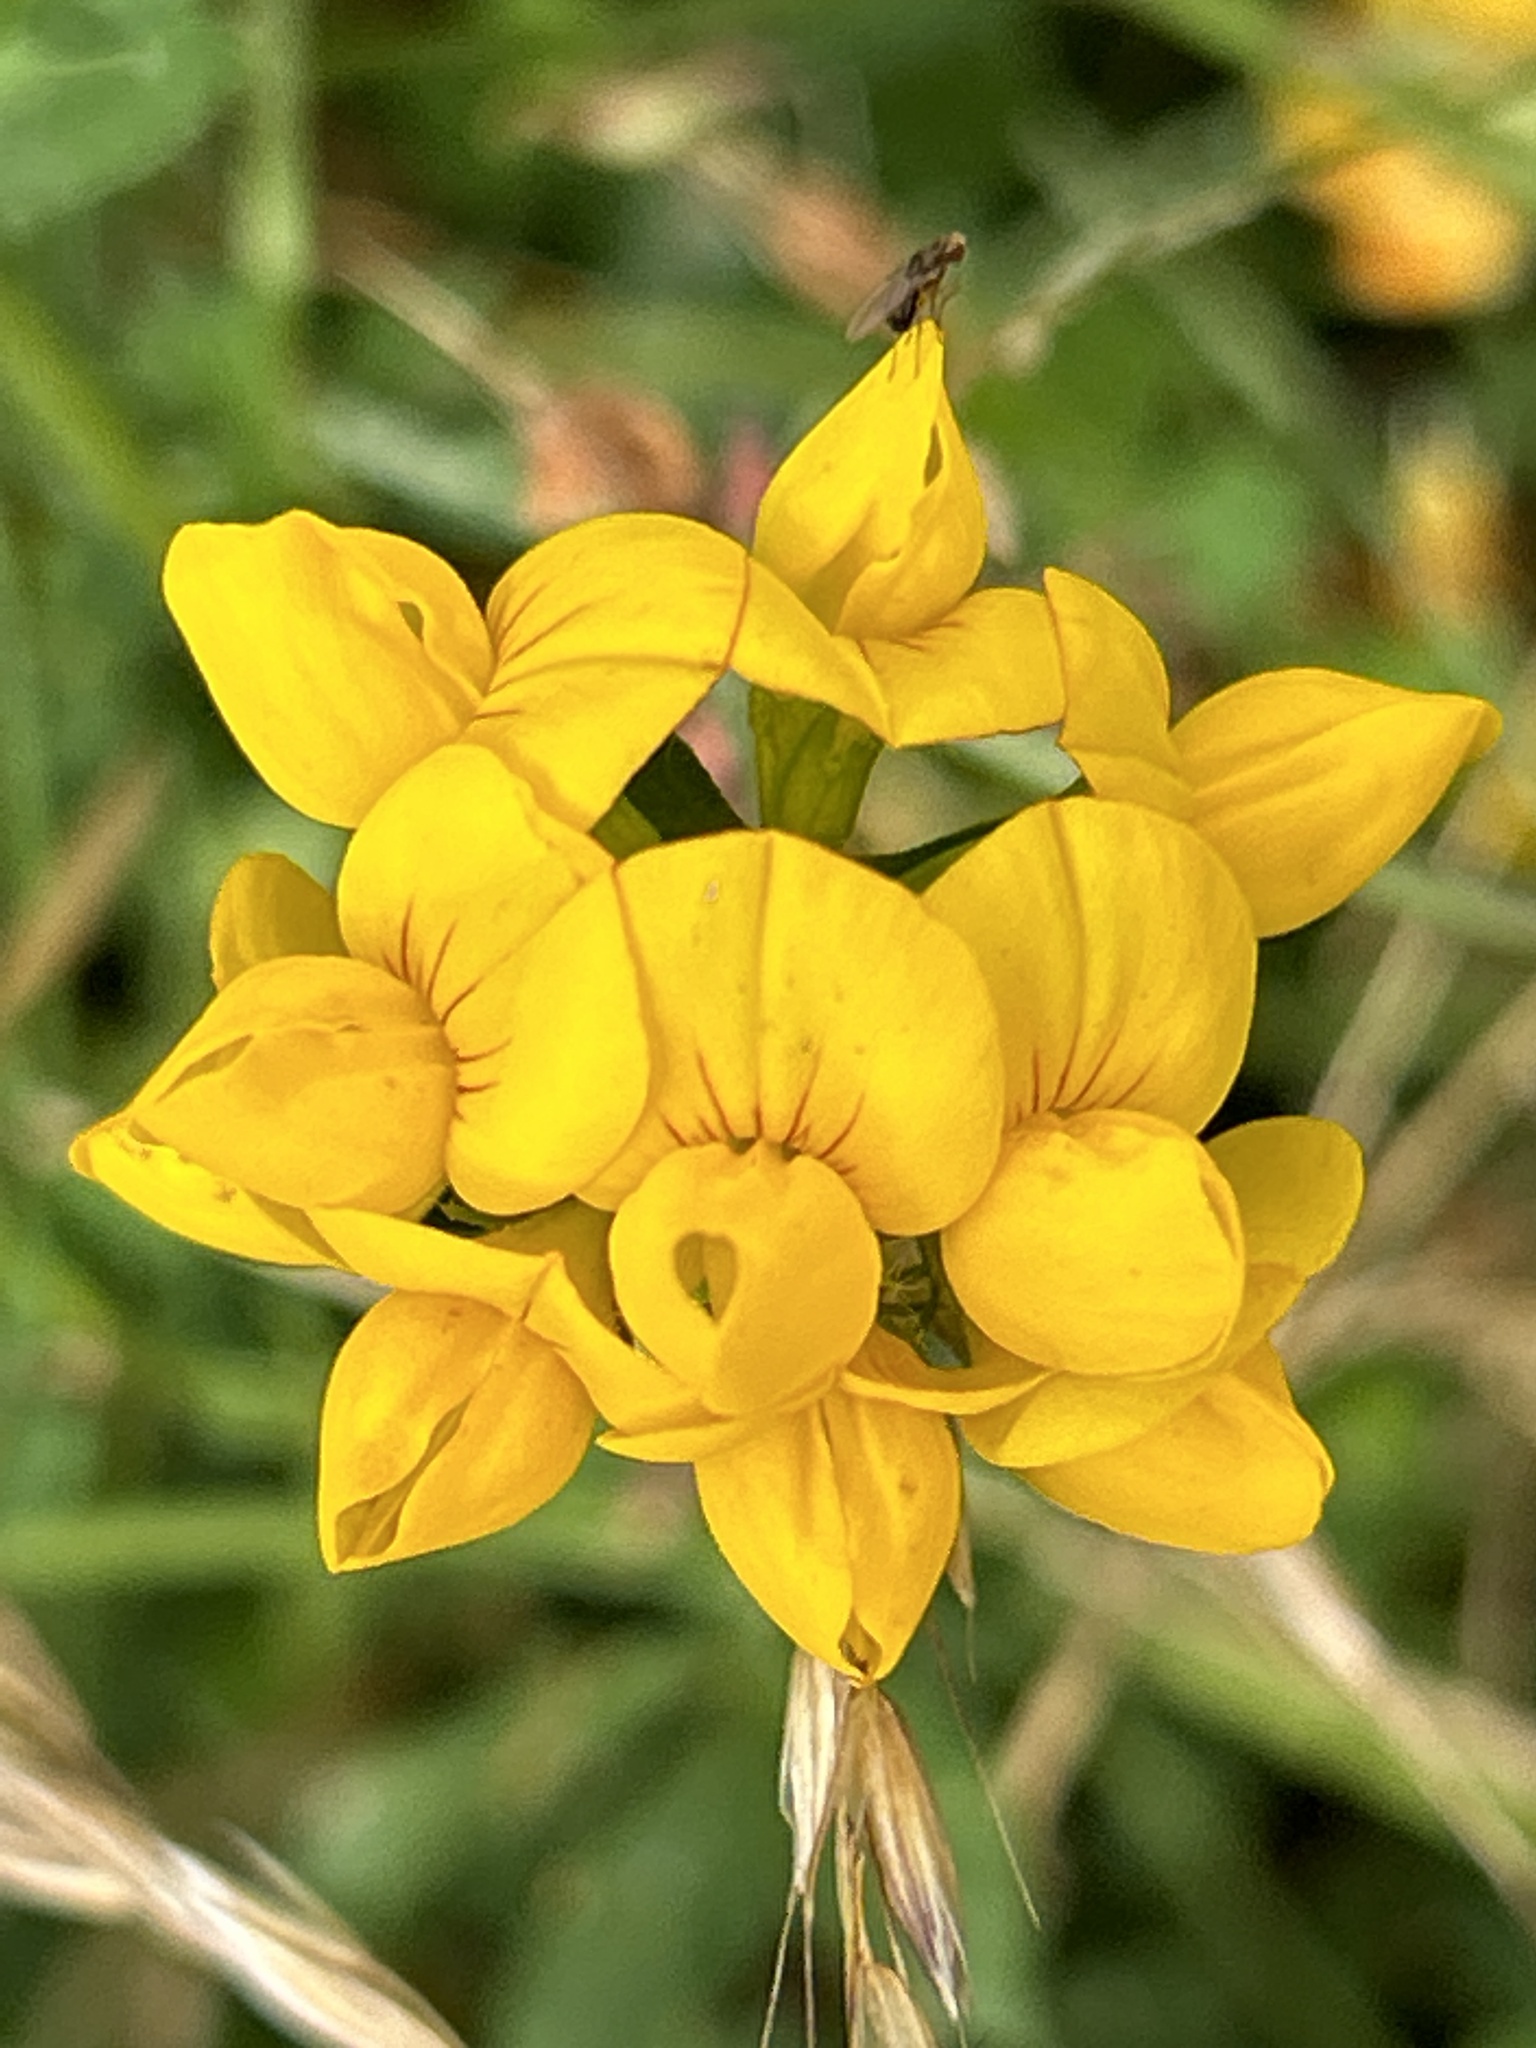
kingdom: Plantae
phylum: Tracheophyta
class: Magnoliopsida
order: Fabales
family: Fabaceae
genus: Lotus
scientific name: Lotus pedunculatus
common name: Greater birdsfoot-trefoil
